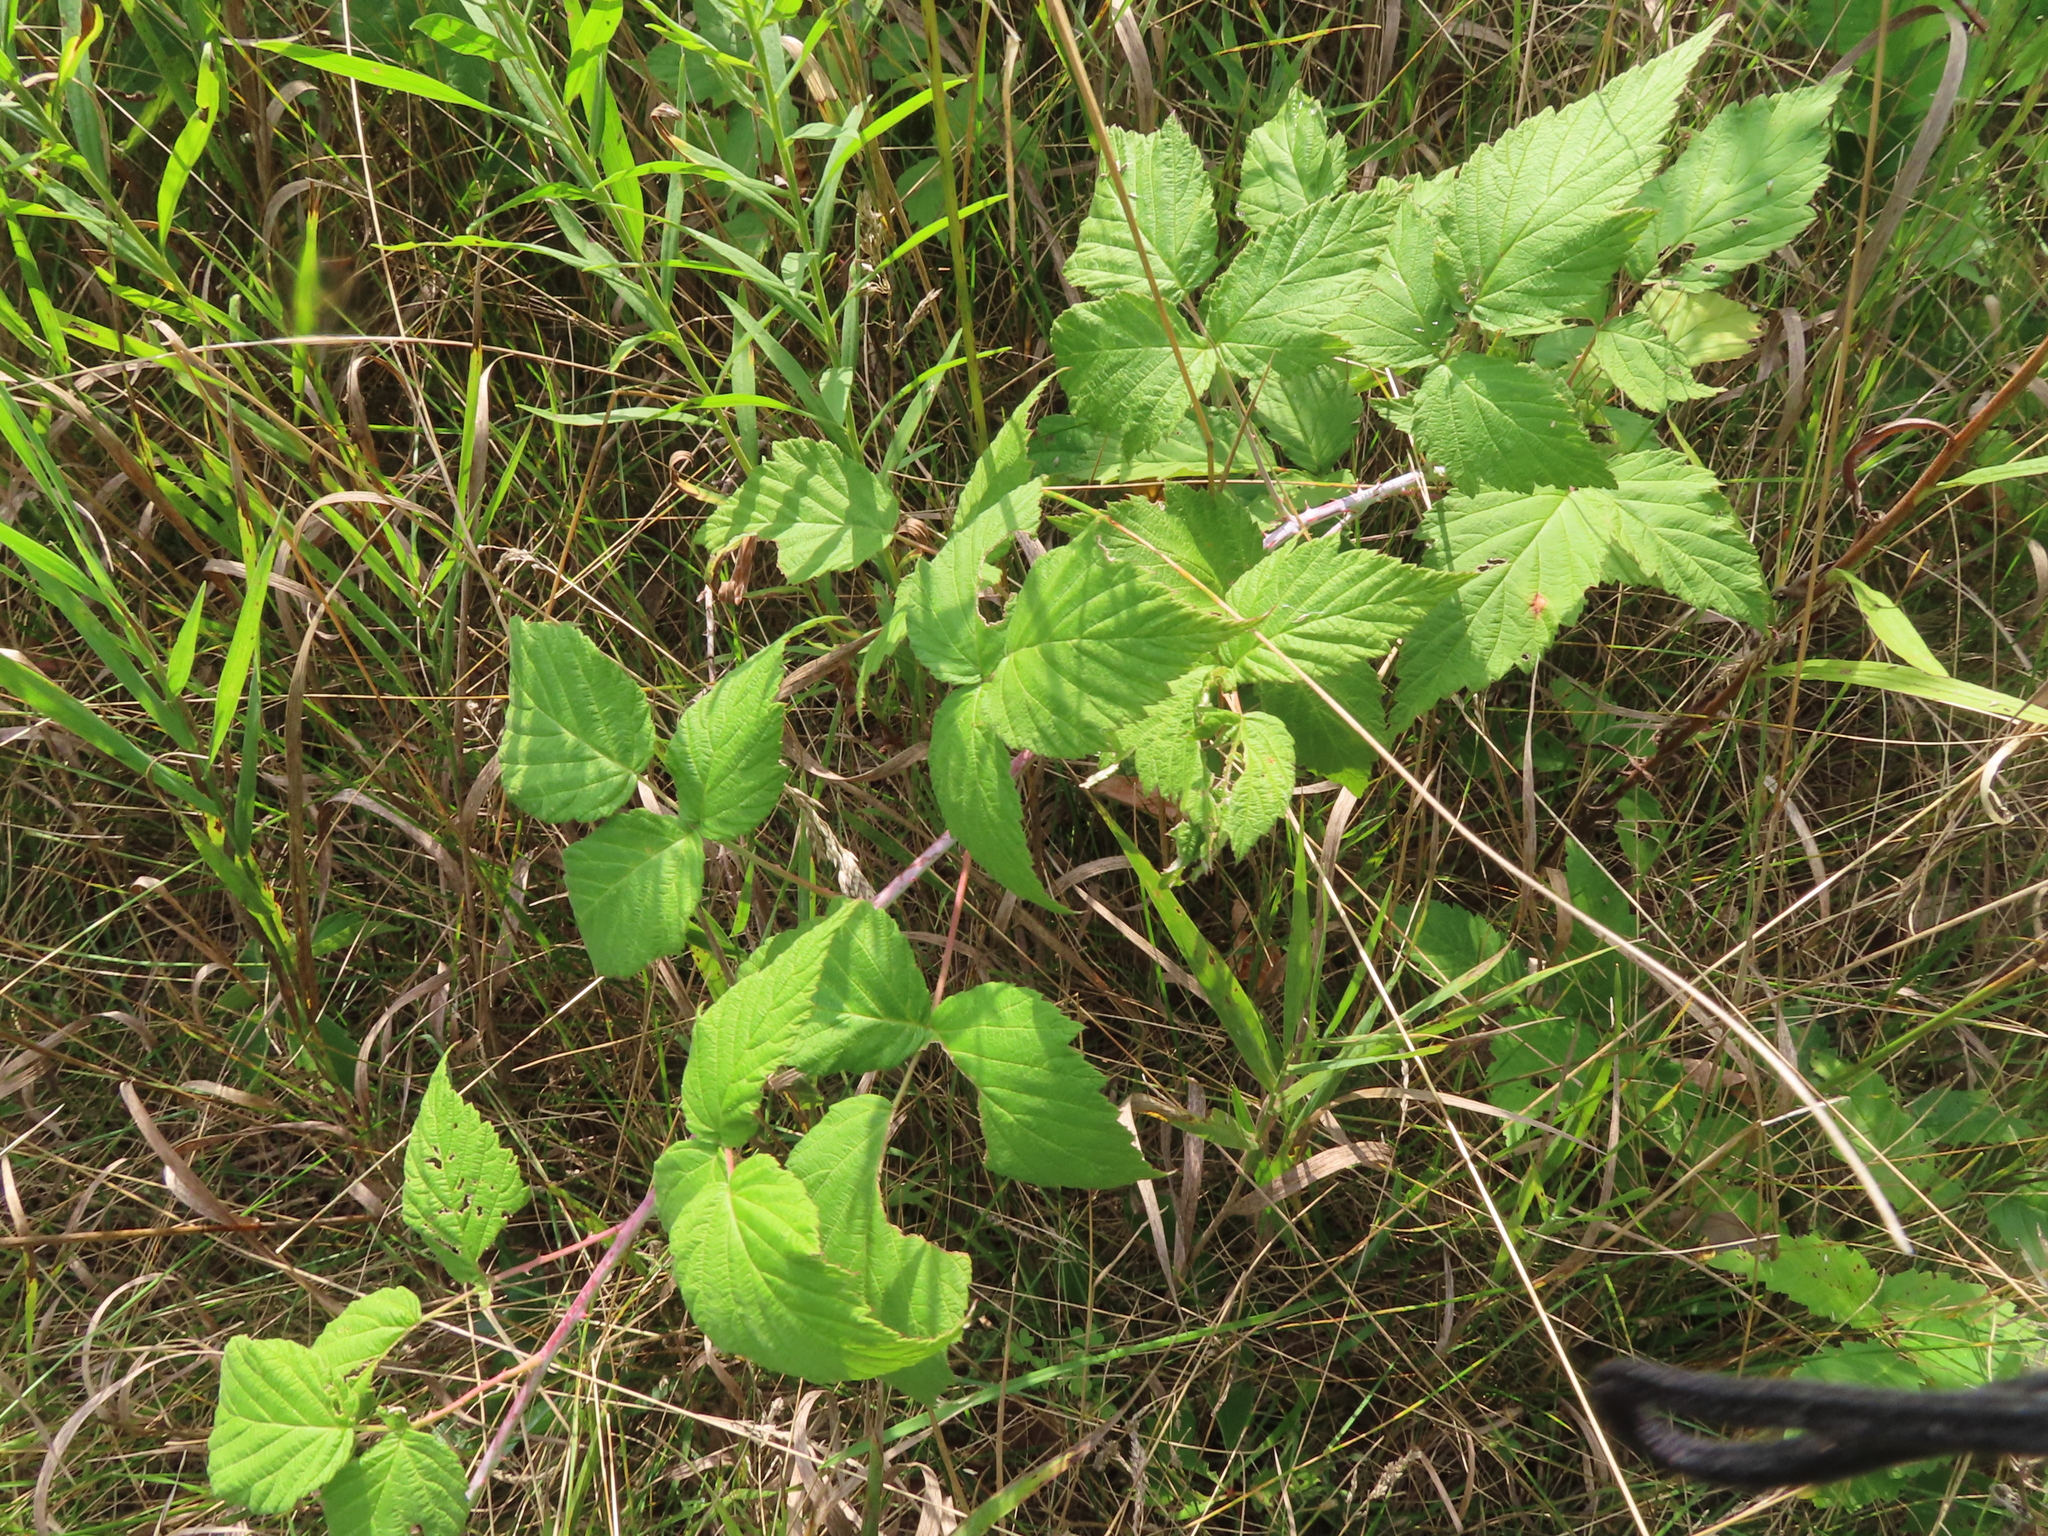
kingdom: Plantae
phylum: Tracheophyta
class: Magnoliopsida
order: Rosales
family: Rosaceae
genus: Rubus
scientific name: Rubus occidentalis
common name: Black raspberry
